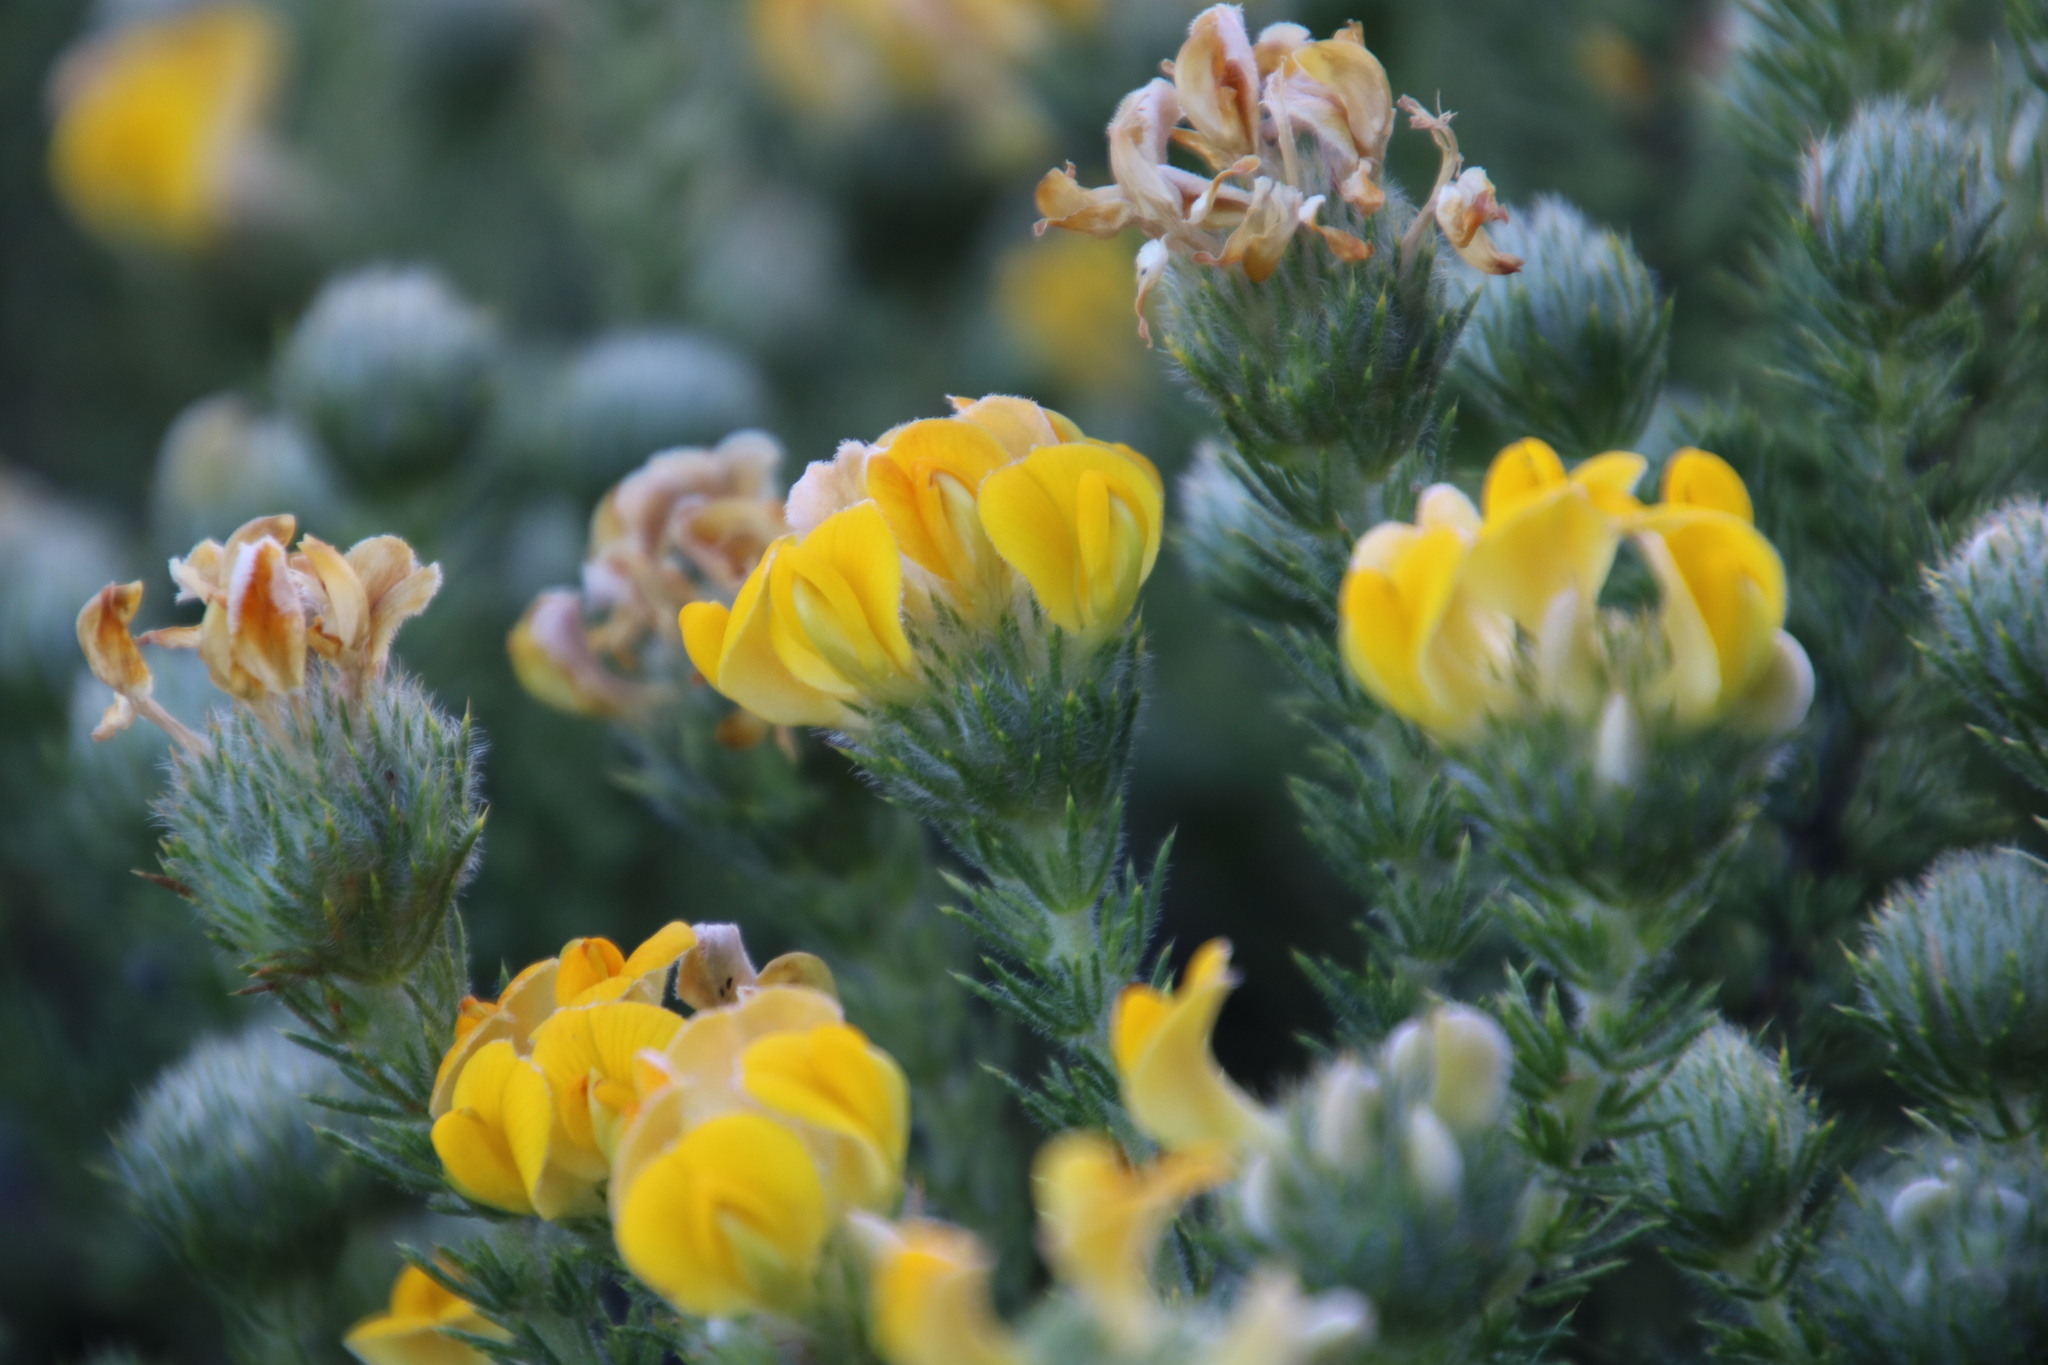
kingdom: Plantae
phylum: Tracheophyta
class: Magnoliopsida
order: Fabales
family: Fabaceae
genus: Aspalathus
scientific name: Aspalathus chenopoda
